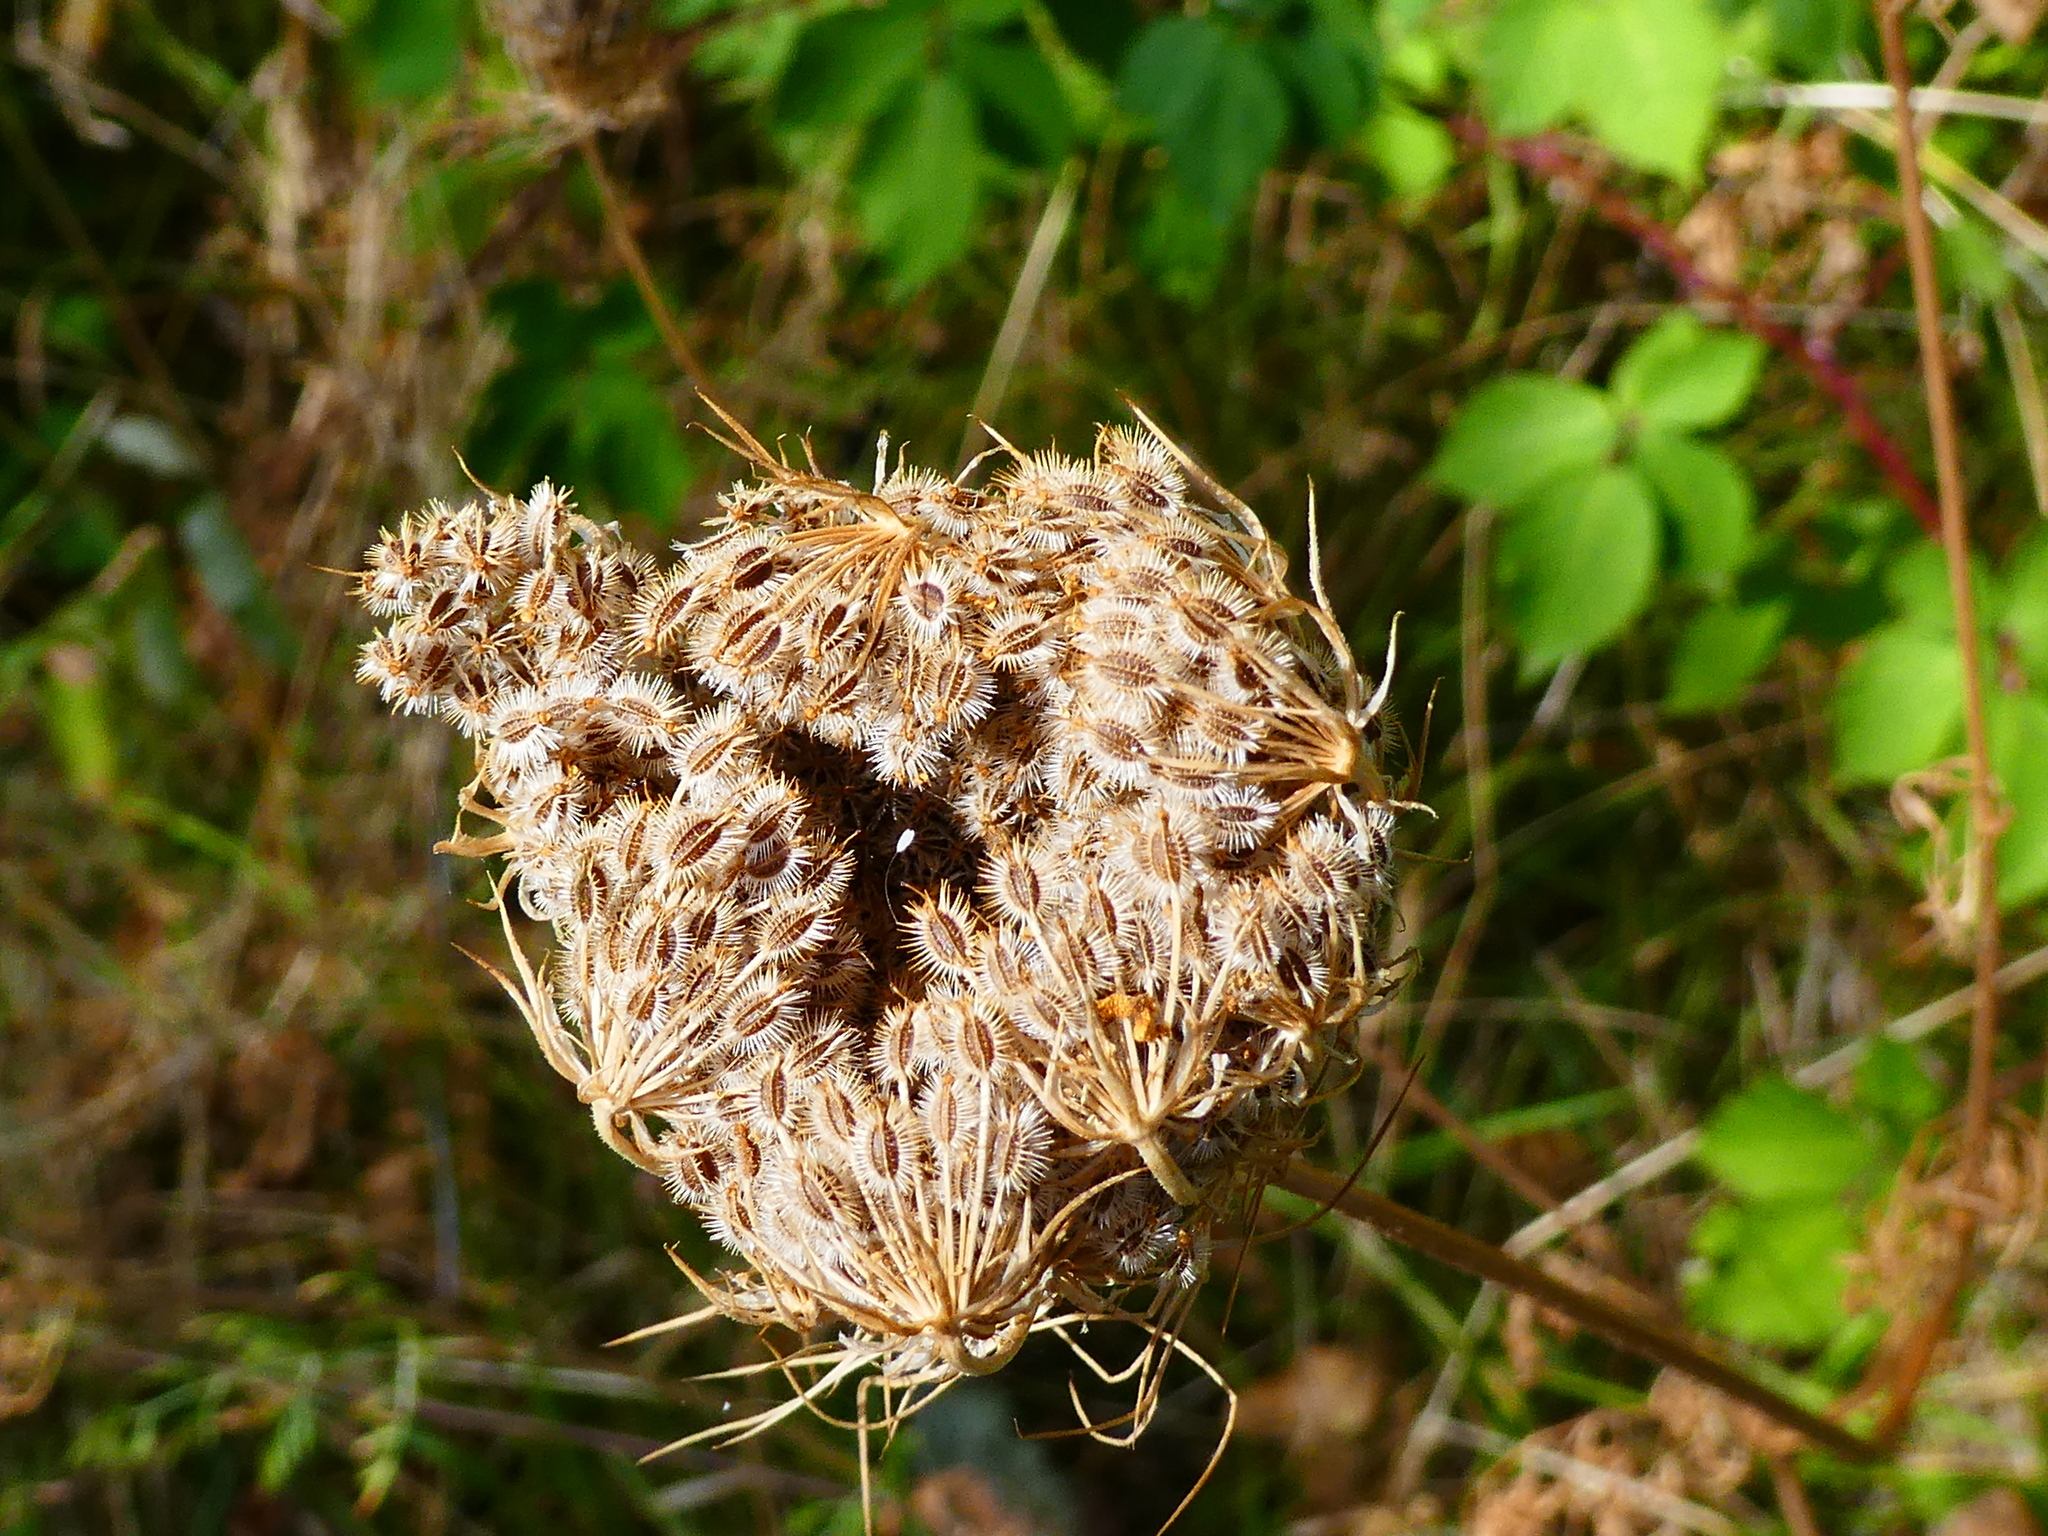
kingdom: Plantae
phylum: Tracheophyta
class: Magnoliopsida
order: Apiales
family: Apiaceae
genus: Daucus
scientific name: Daucus carota
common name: Wild carrot
